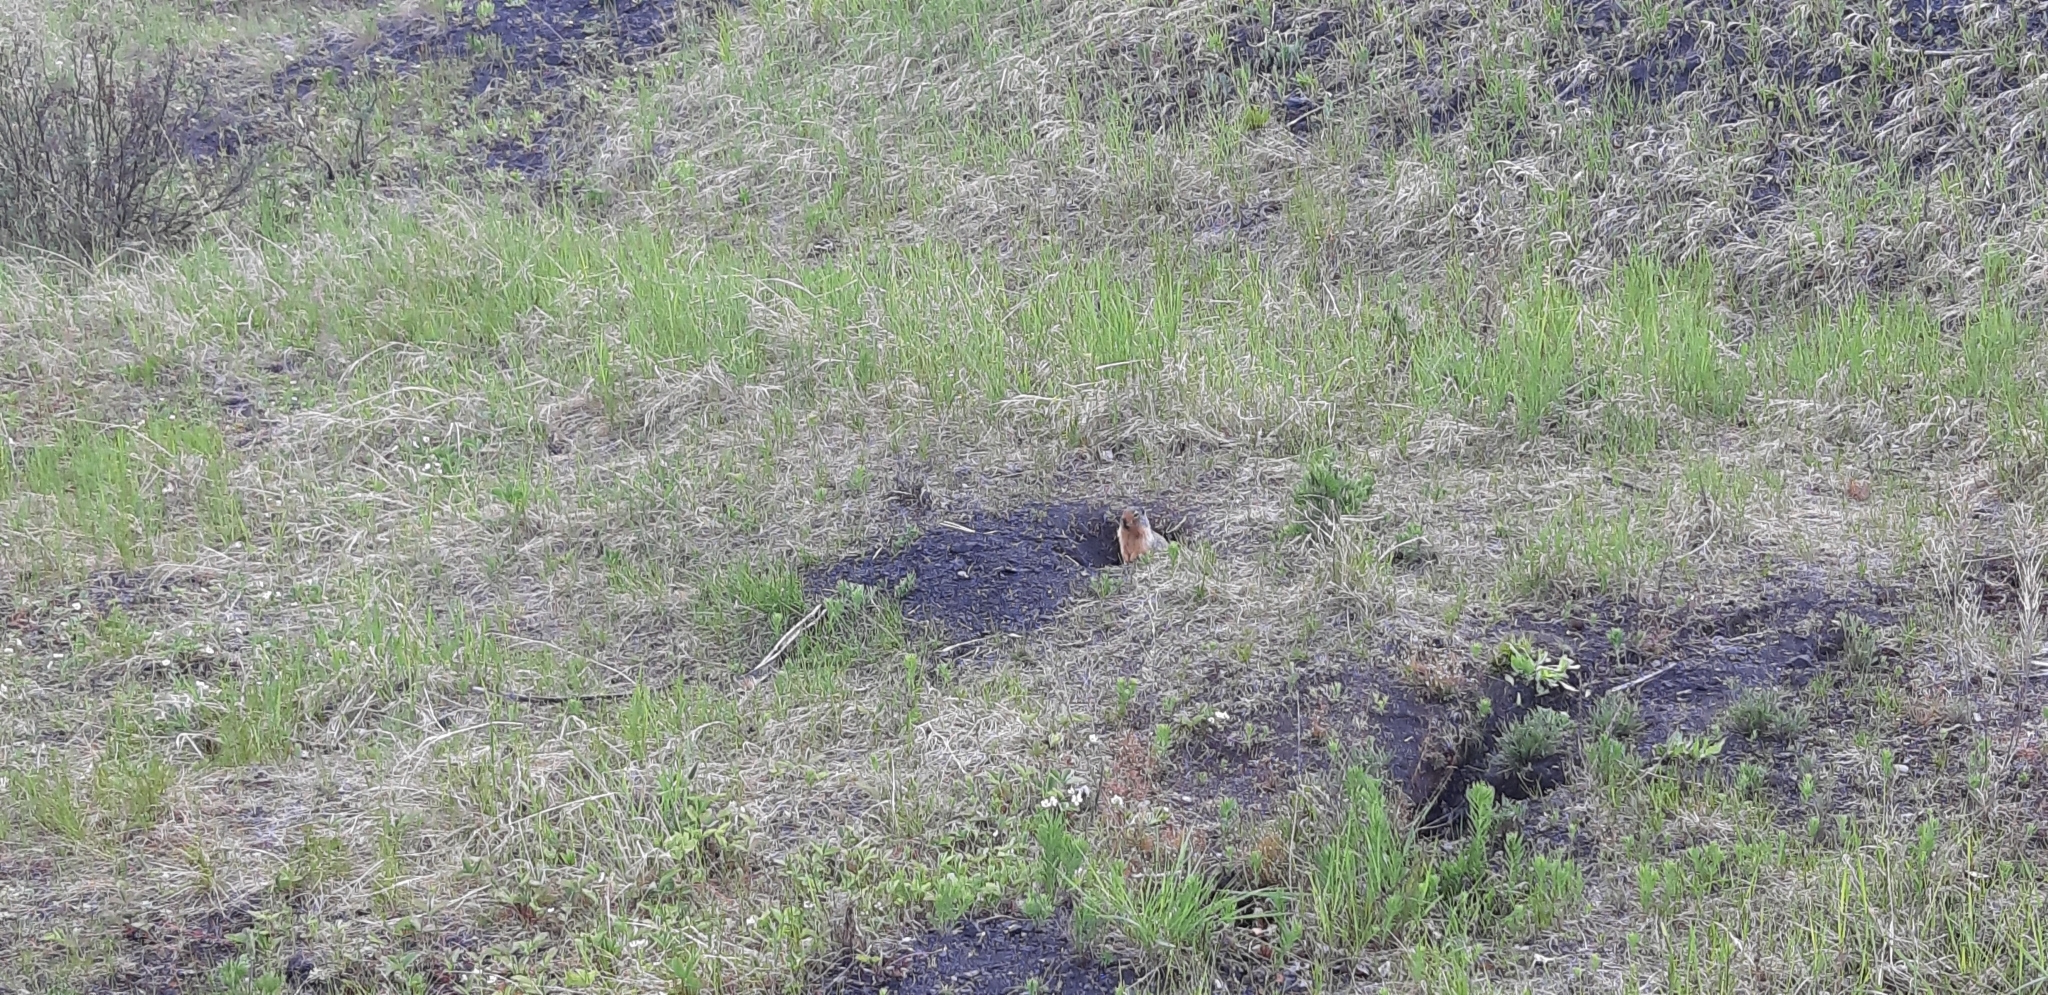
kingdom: Animalia
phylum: Chordata
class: Mammalia
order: Rodentia
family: Sciuridae
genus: Urocitellus
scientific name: Urocitellus columbianus
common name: Columbian ground squirrel
